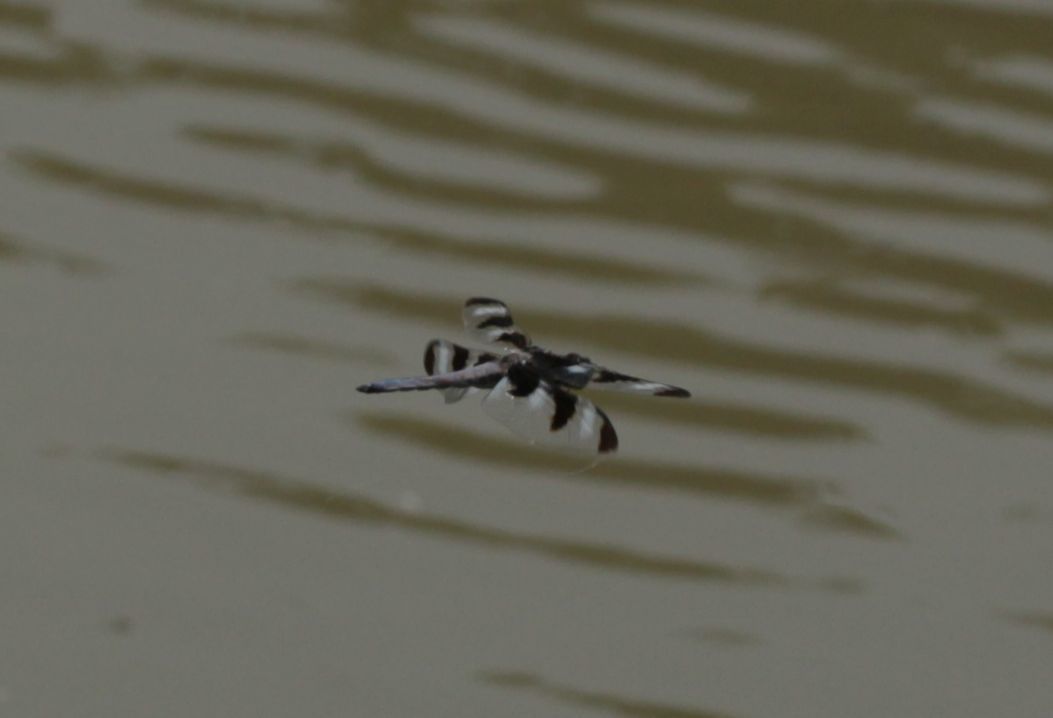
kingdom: Animalia
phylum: Arthropoda
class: Insecta
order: Odonata
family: Libellulidae
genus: Libellula
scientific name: Libellula pulchella
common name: Twelve-spotted skimmer
